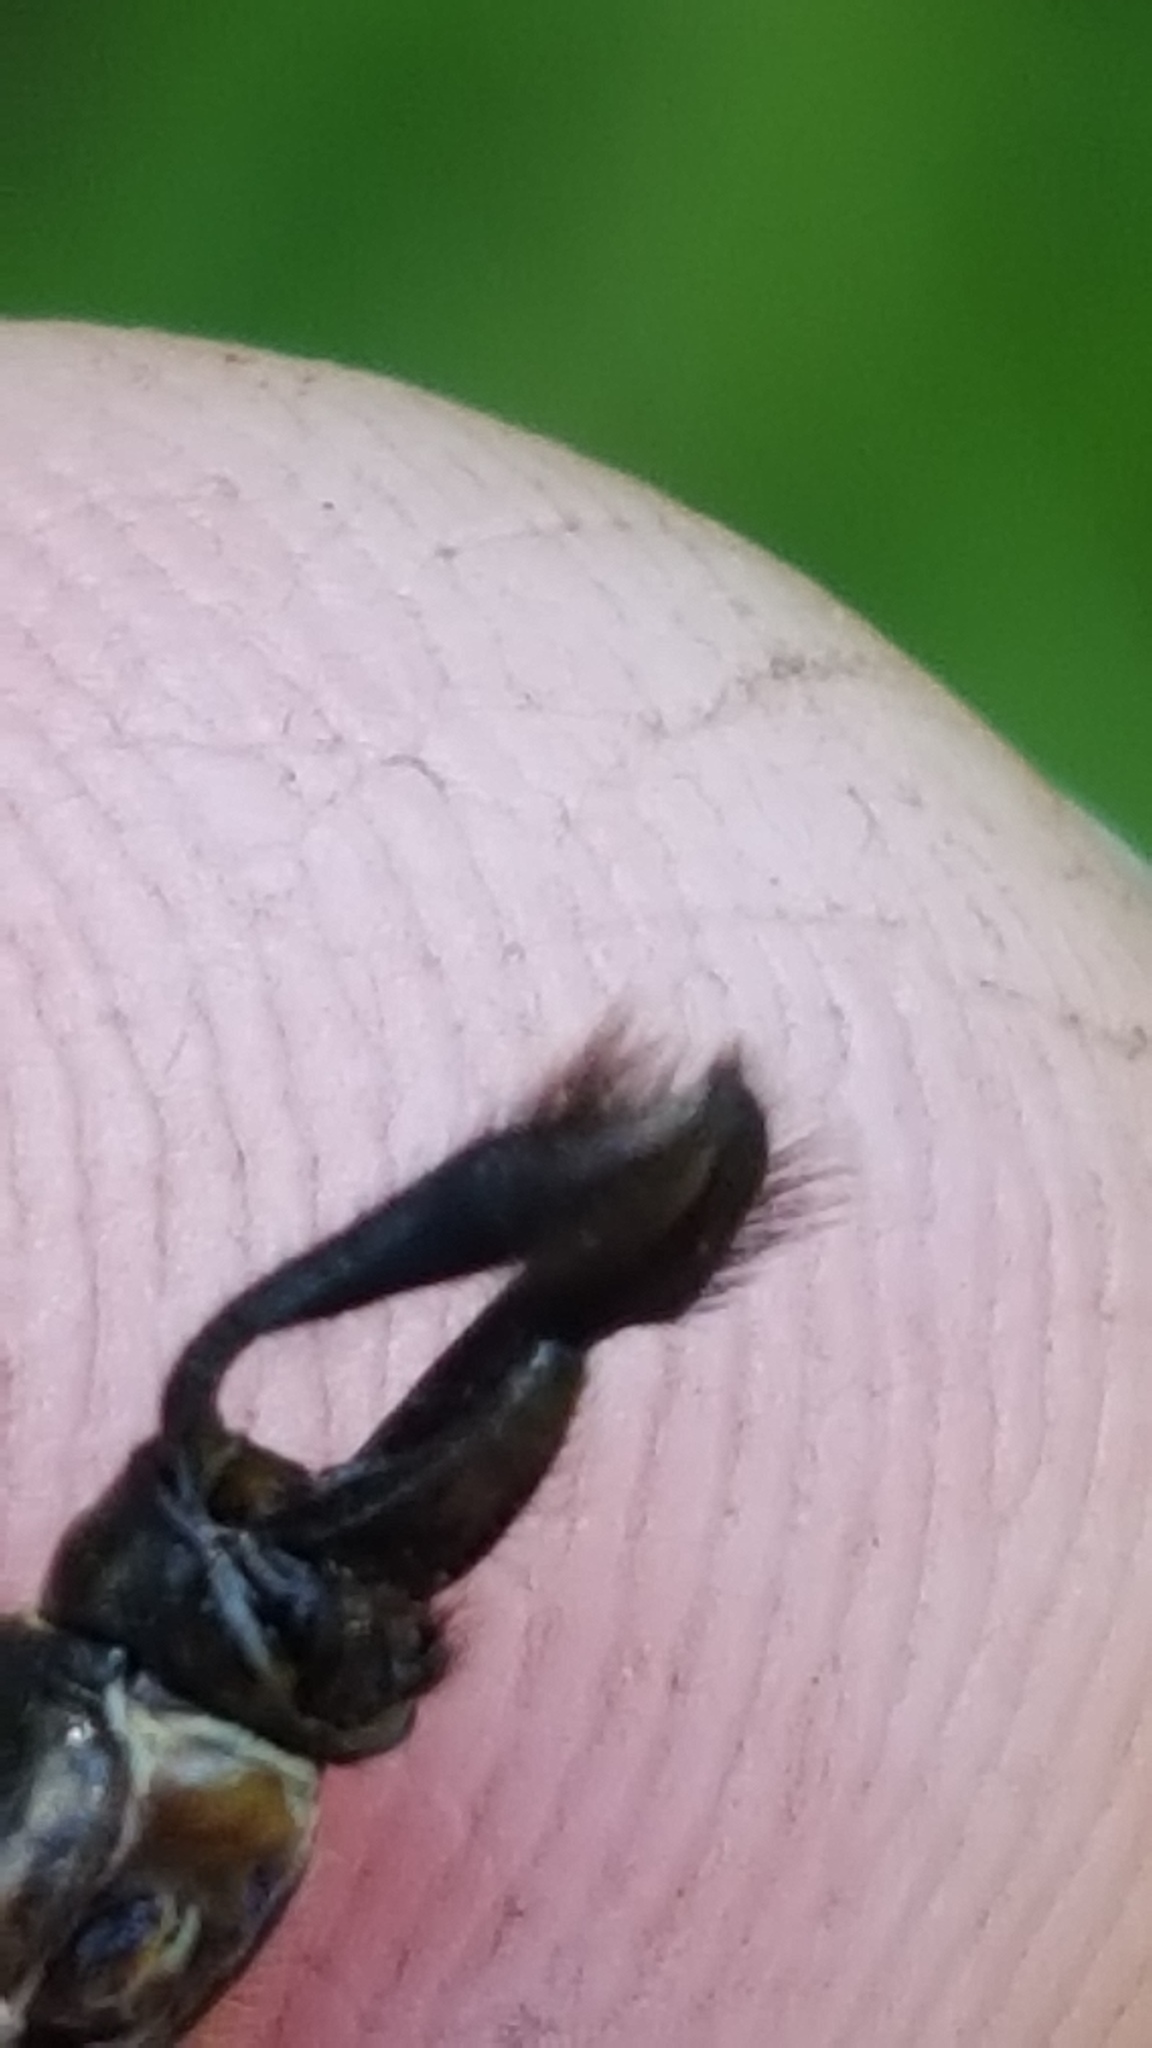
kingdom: Animalia
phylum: Arthropoda
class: Insecta
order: Odonata
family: Corduliidae
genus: Somatochlora
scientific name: Somatochlora walshii
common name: Brush-tipped emerald
